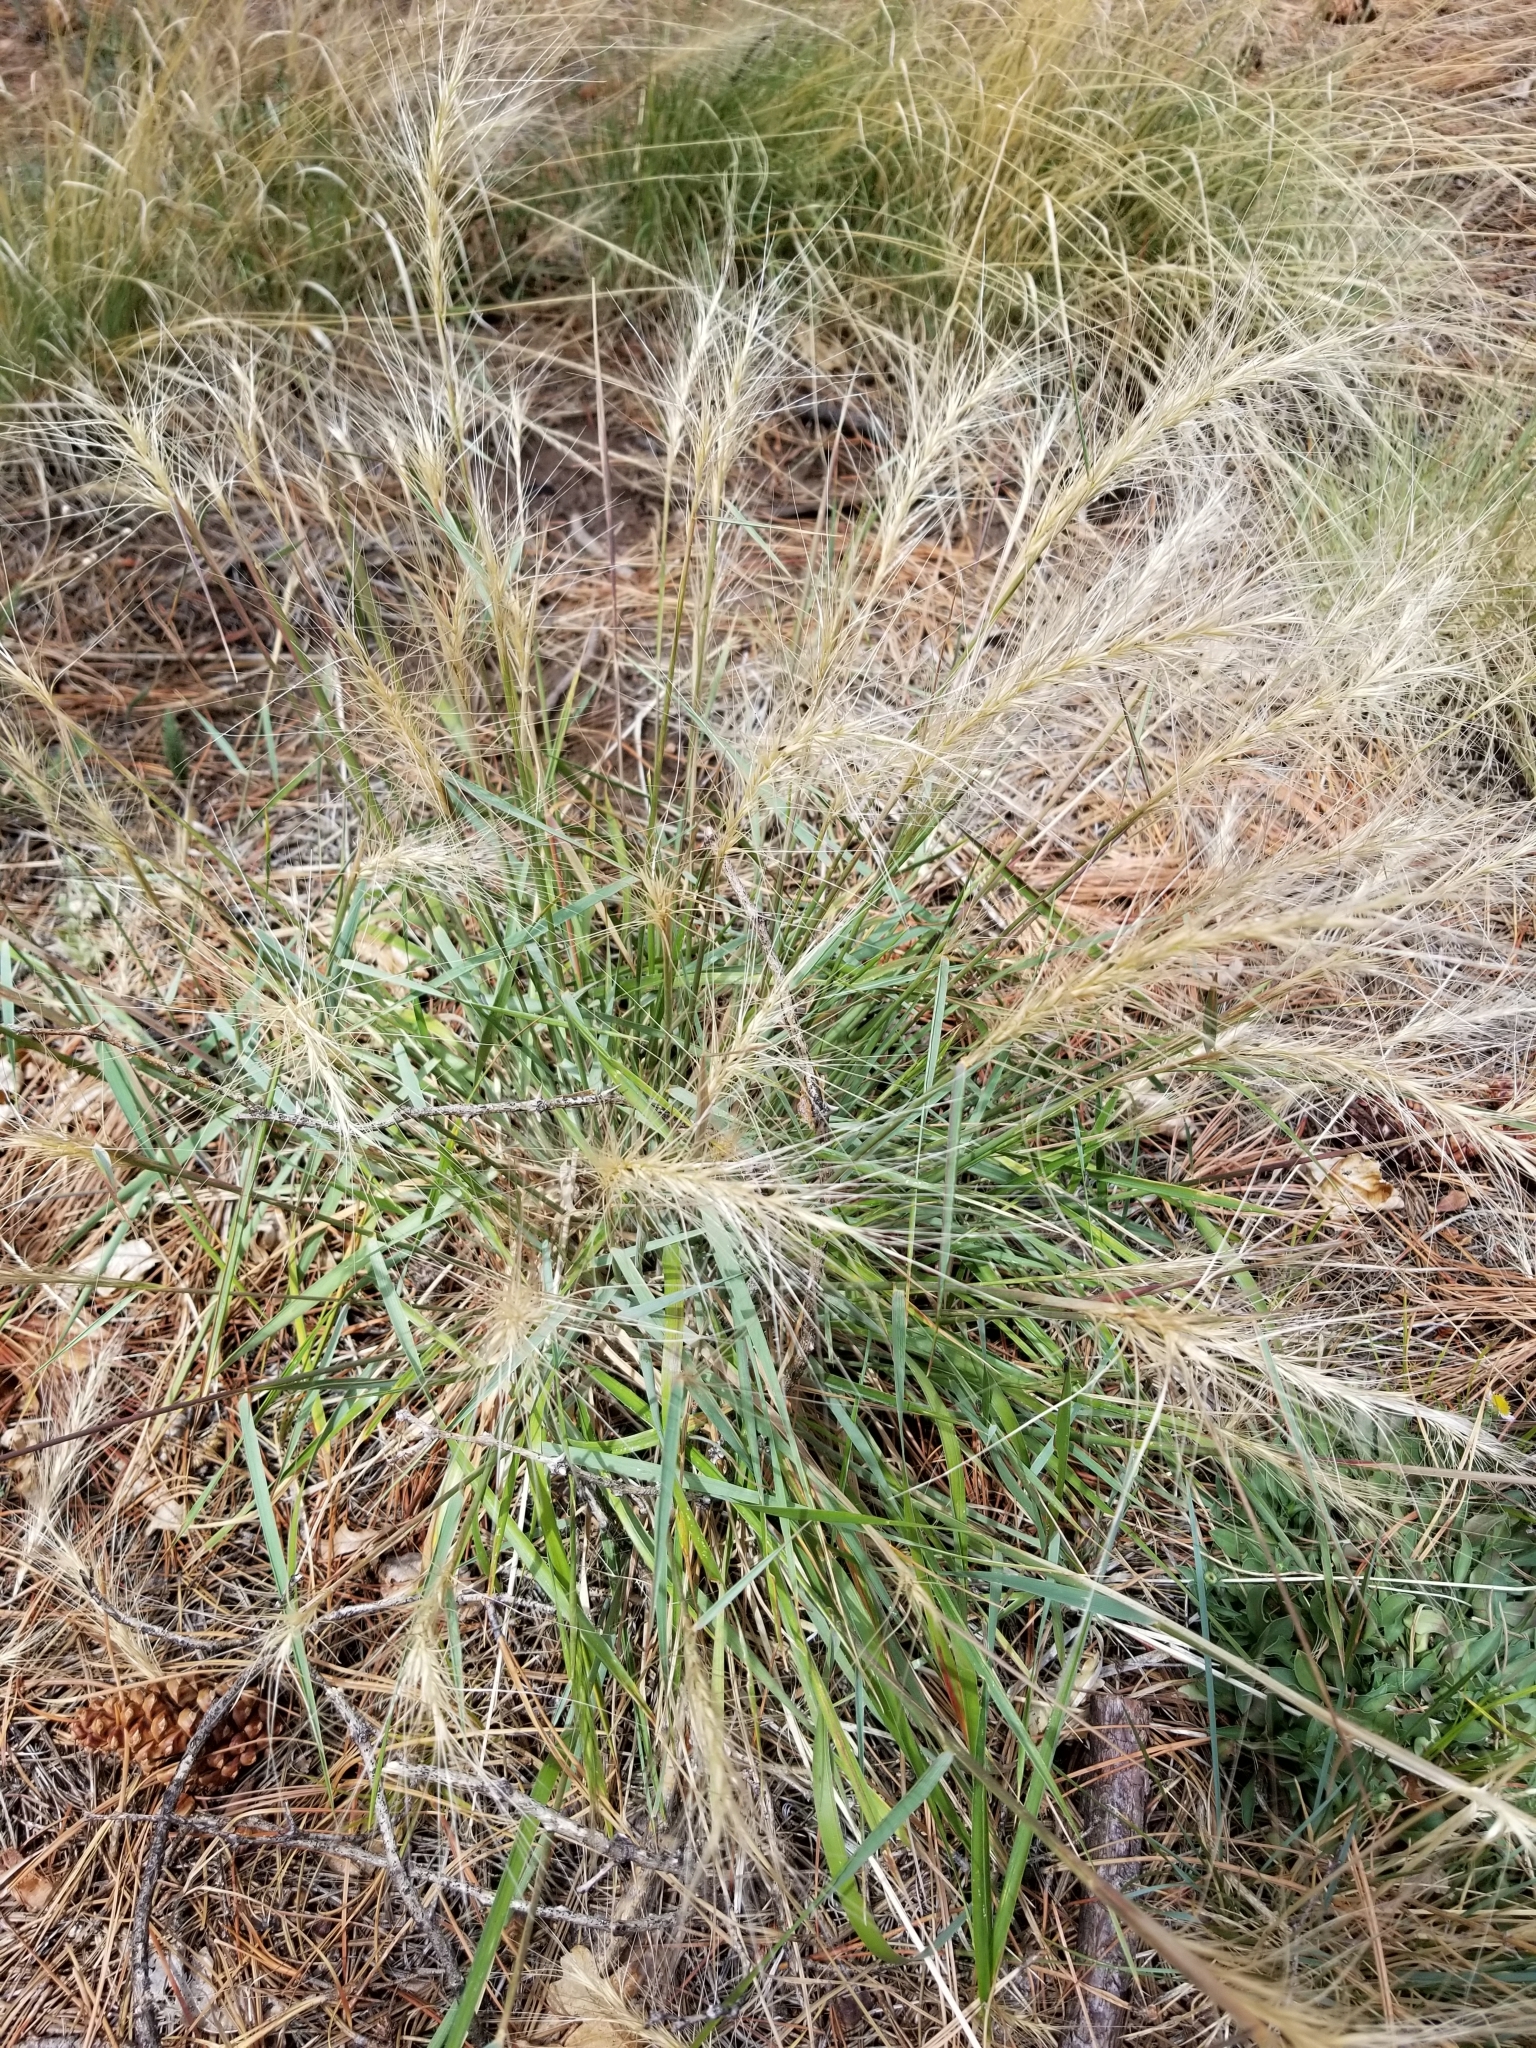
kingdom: Plantae
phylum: Tracheophyta
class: Liliopsida
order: Poales
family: Poaceae
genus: Elymus
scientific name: Elymus elymoides
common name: Bottlebrush squirreltail
